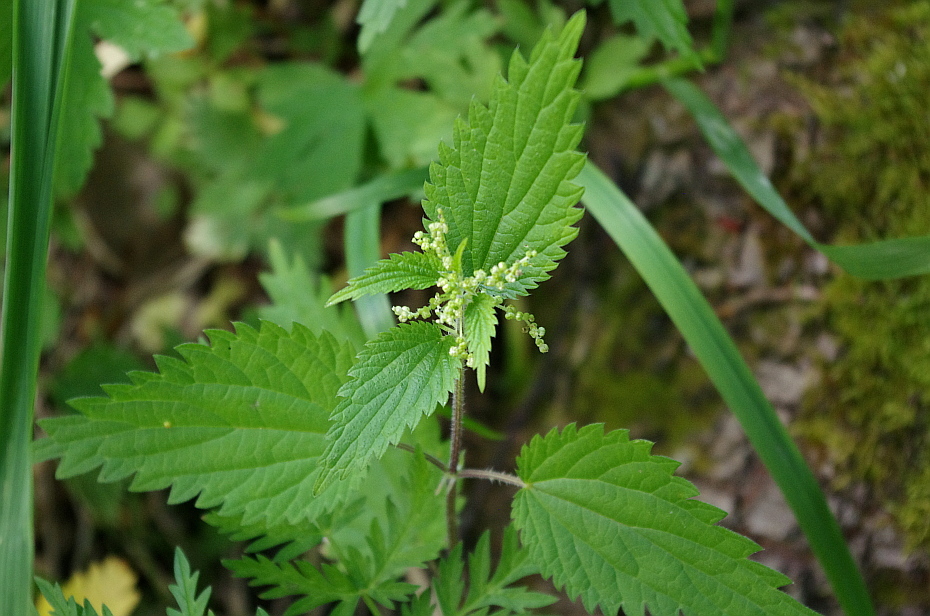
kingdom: Plantae
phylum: Tracheophyta
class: Magnoliopsida
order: Rosales
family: Urticaceae
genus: Urtica
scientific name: Urtica dioica
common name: Common nettle
